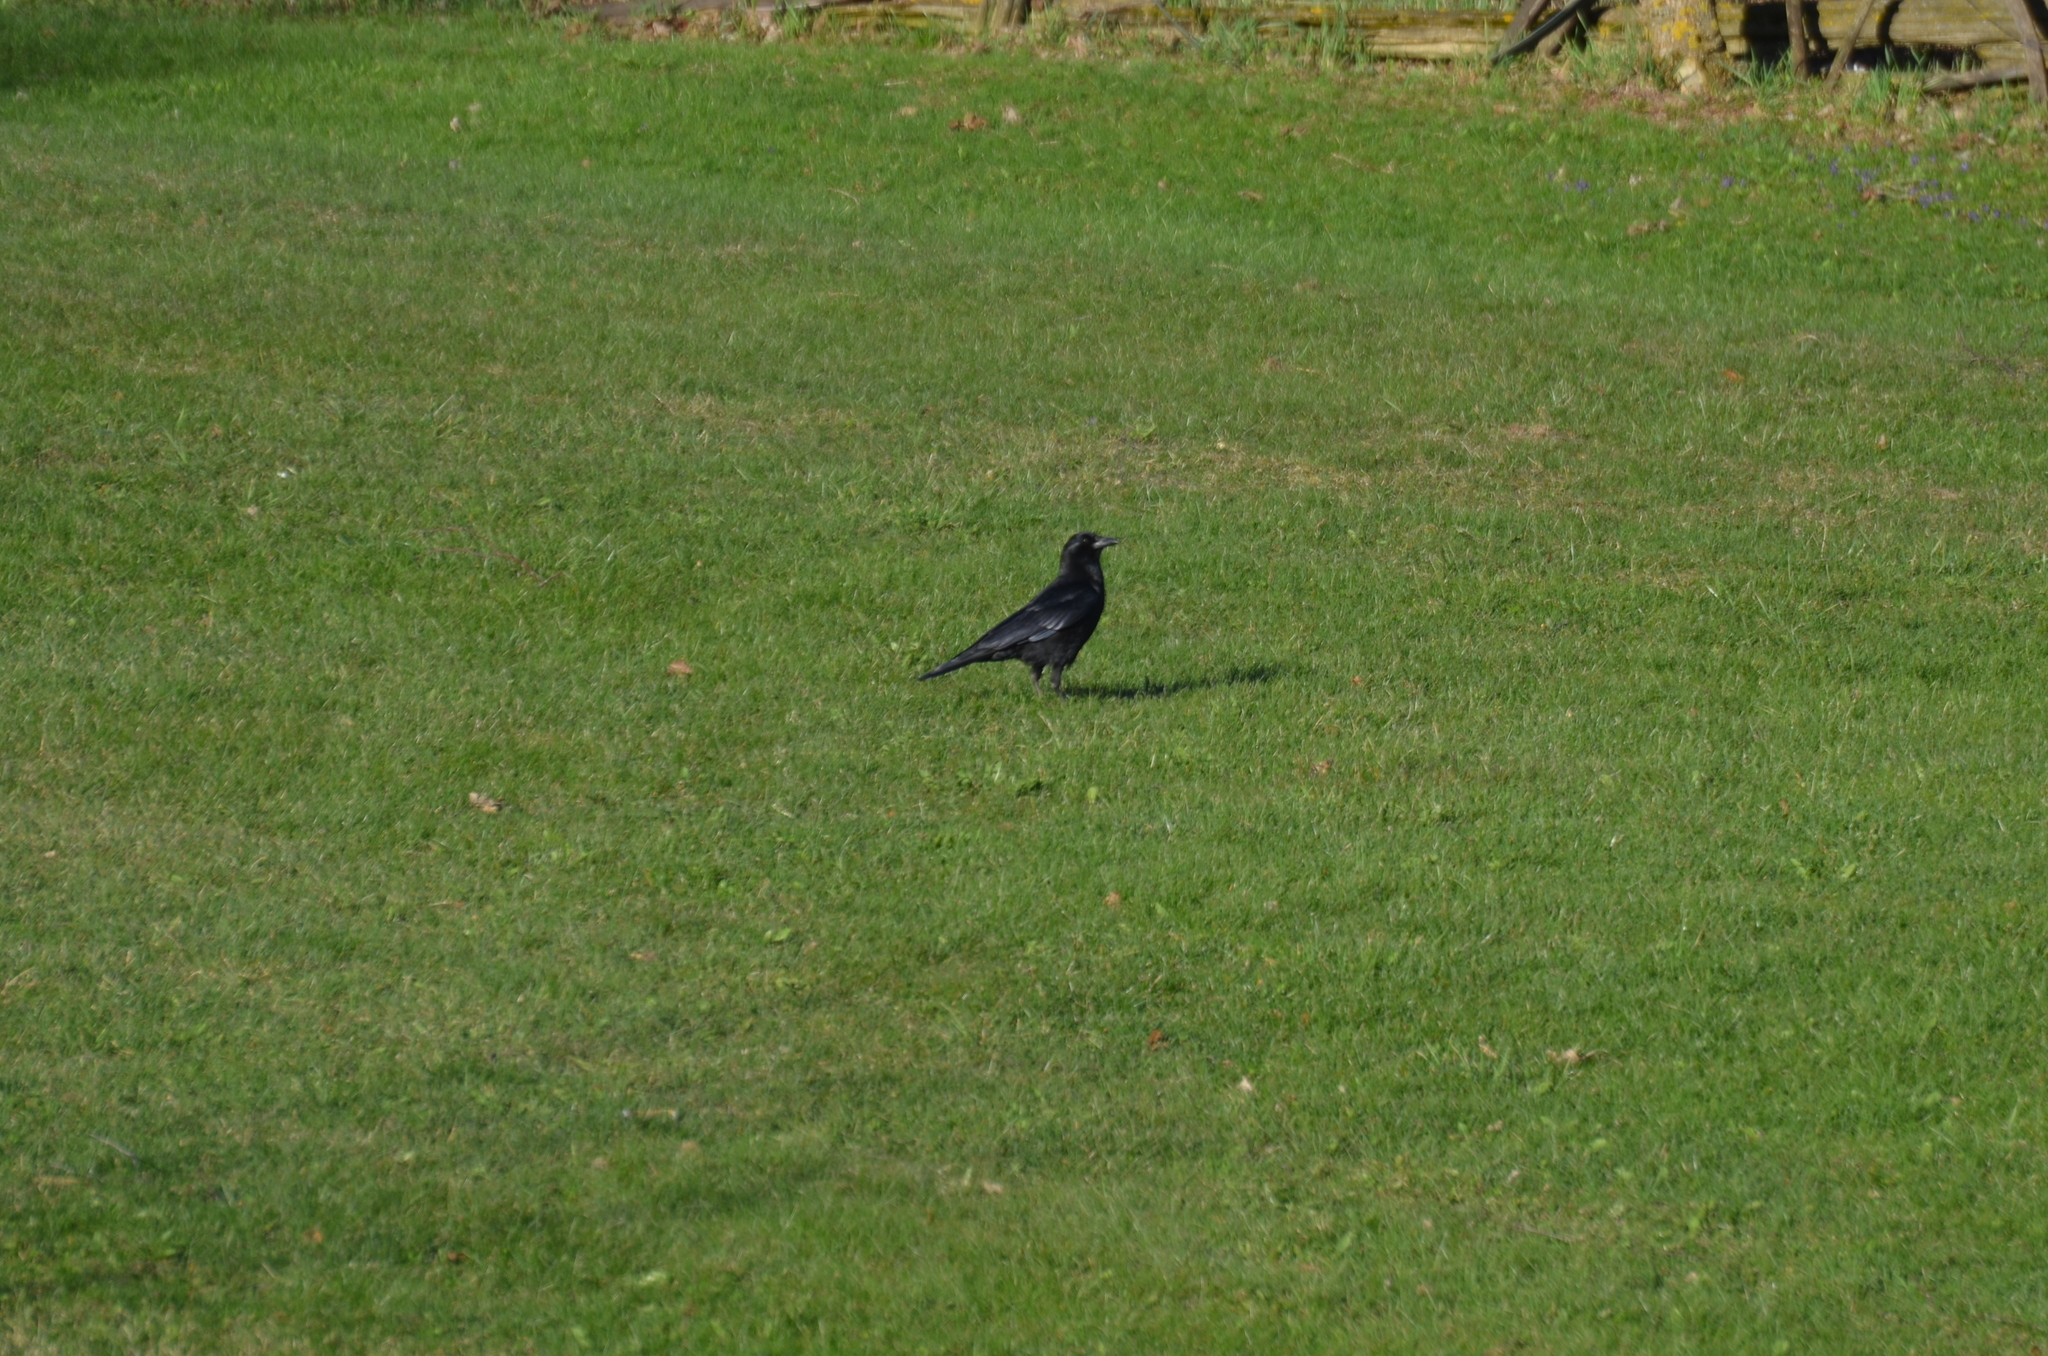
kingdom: Animalia
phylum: Chordata
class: Aves
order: Passeriformes
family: Corvidae
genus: Corvus
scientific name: Corvus brachyrhynchos
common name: American crow
